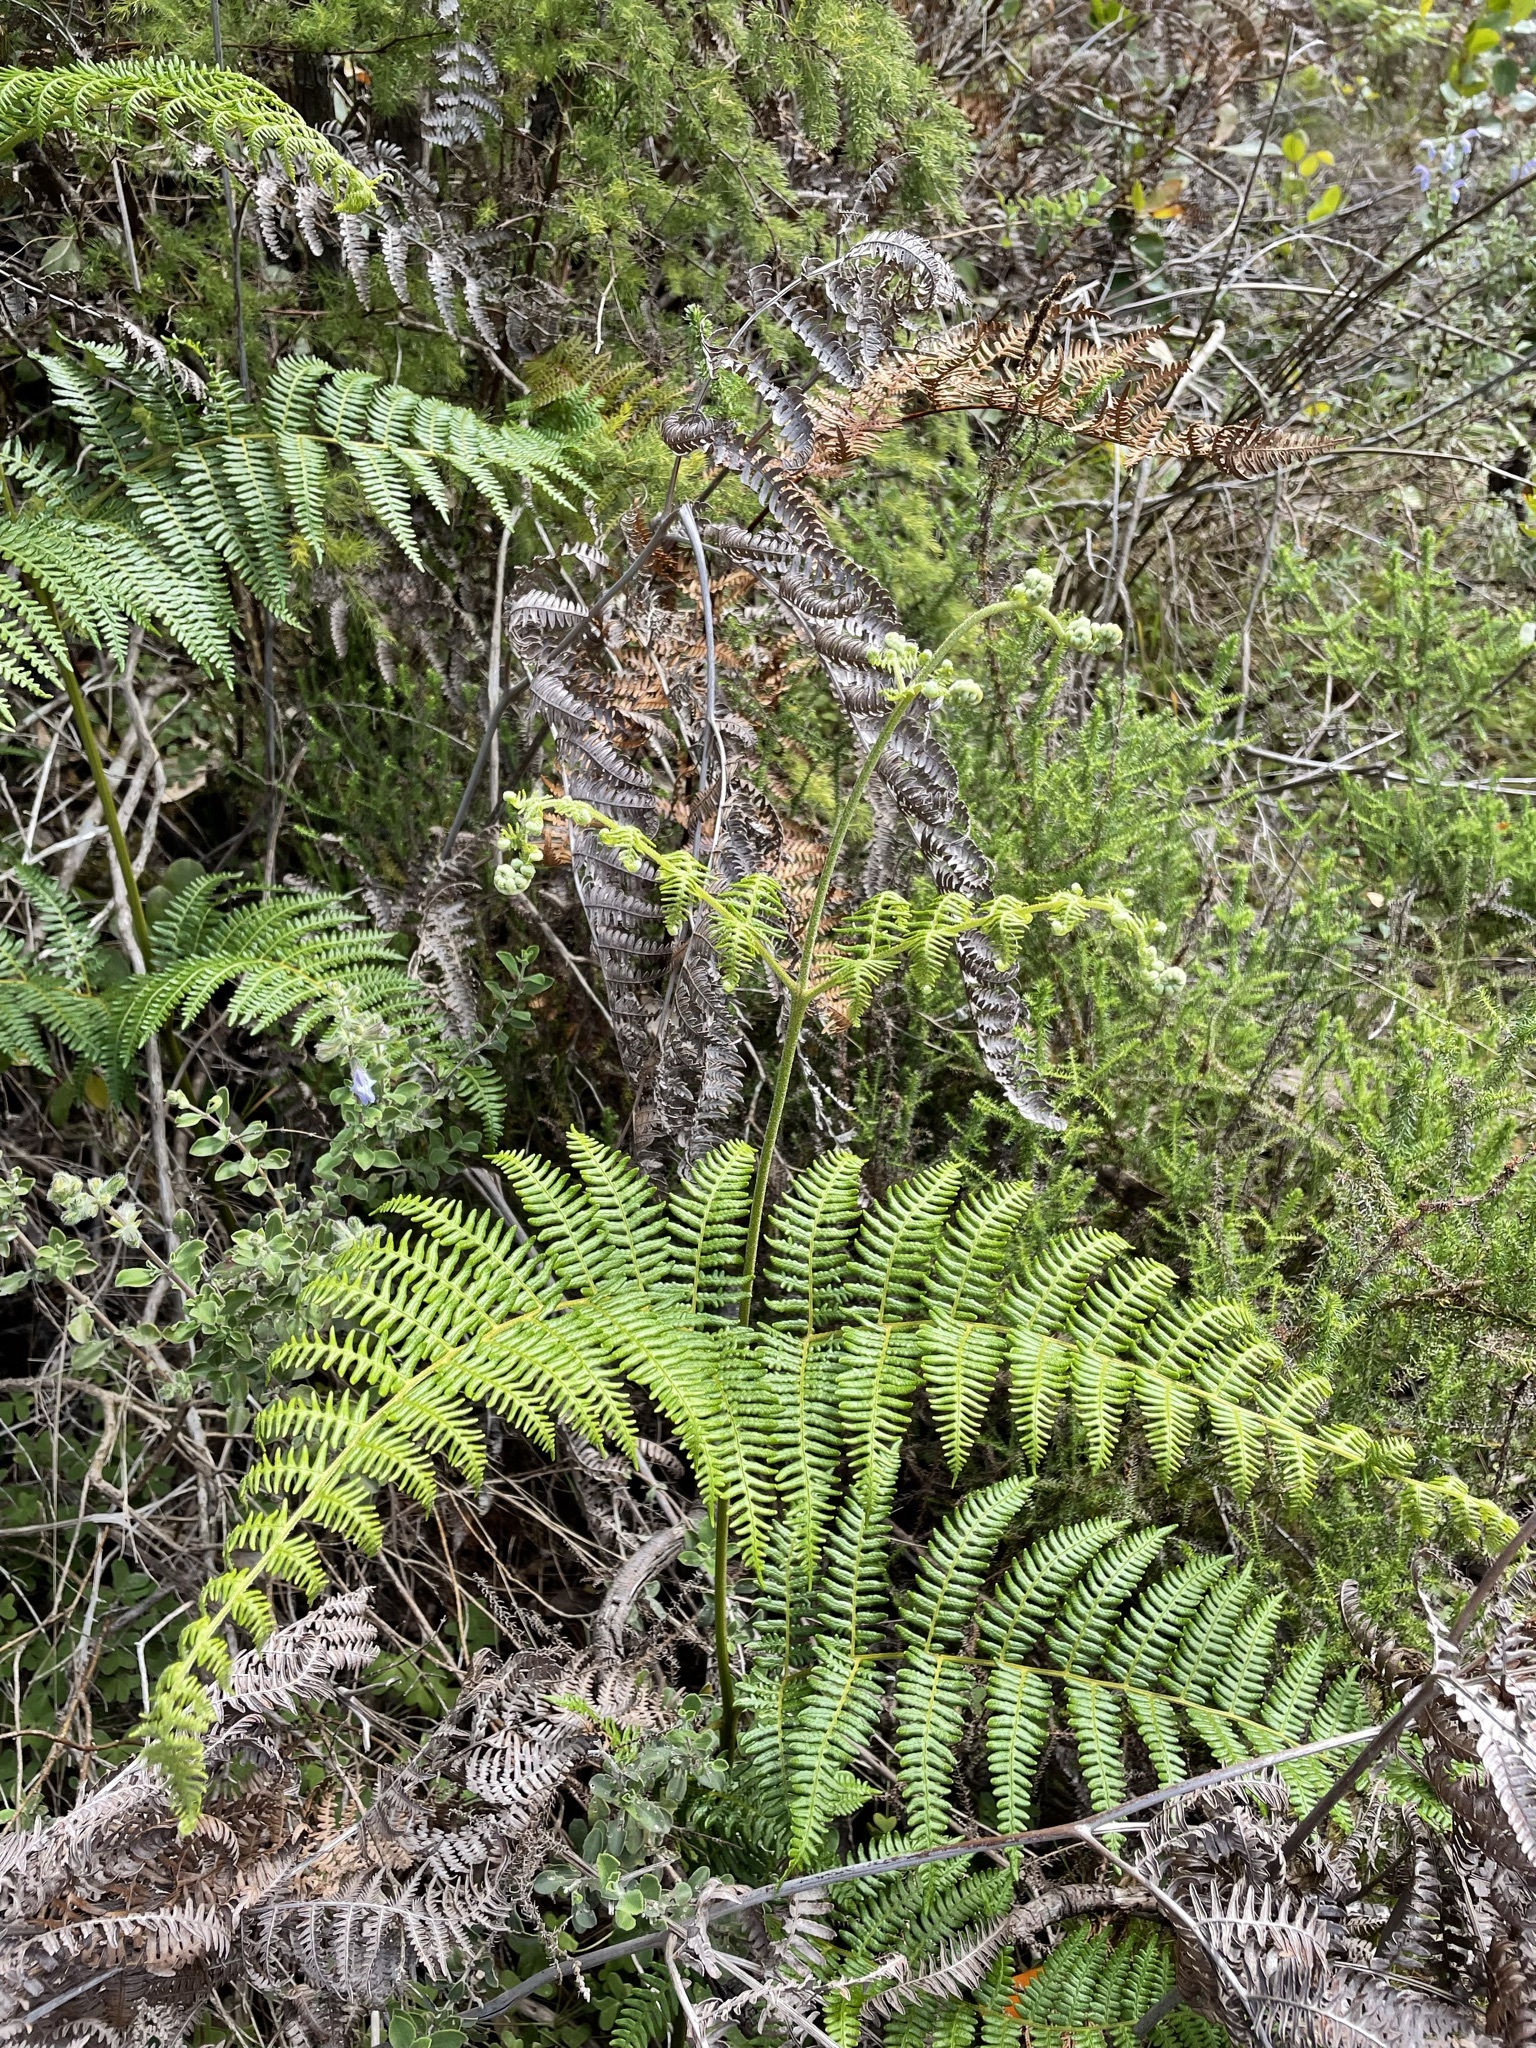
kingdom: Plantae
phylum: Tracheophyta
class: Polypodiopsida
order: Polypodiales
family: Dennstaedtiaceae
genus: Pteridium
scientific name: Pteridium aquilinum
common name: Bracken
